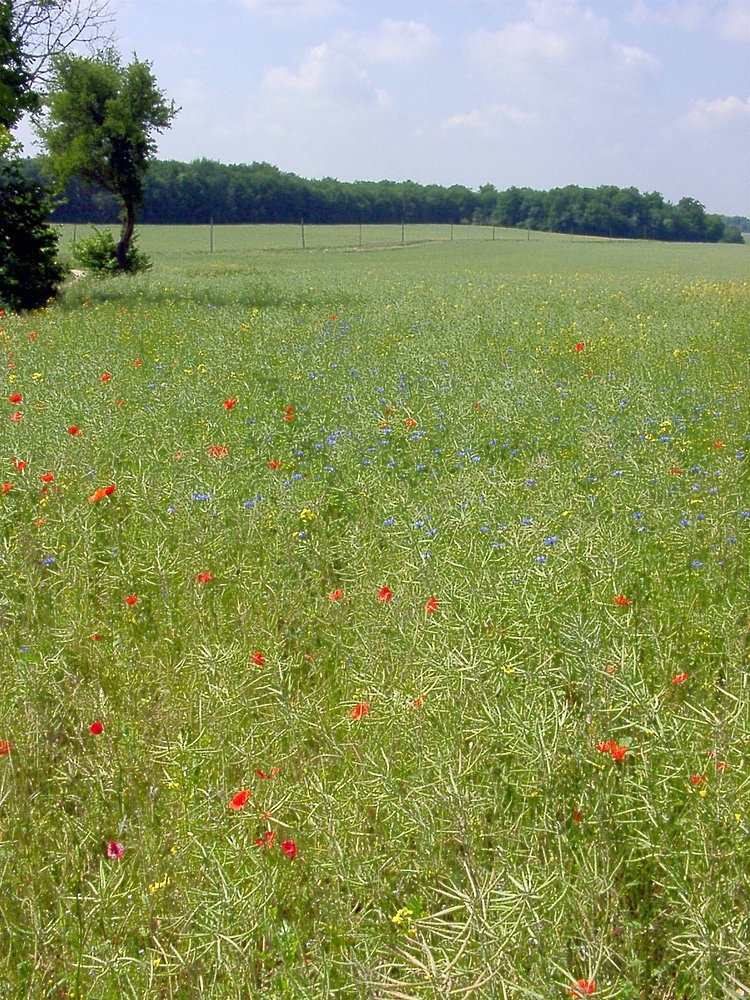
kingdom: Plantae
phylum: Tracheophyta
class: Magnoliopsida
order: Asterales
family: Asteraceae
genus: Centaurea
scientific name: Centaurea cyanus
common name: Cornflower
